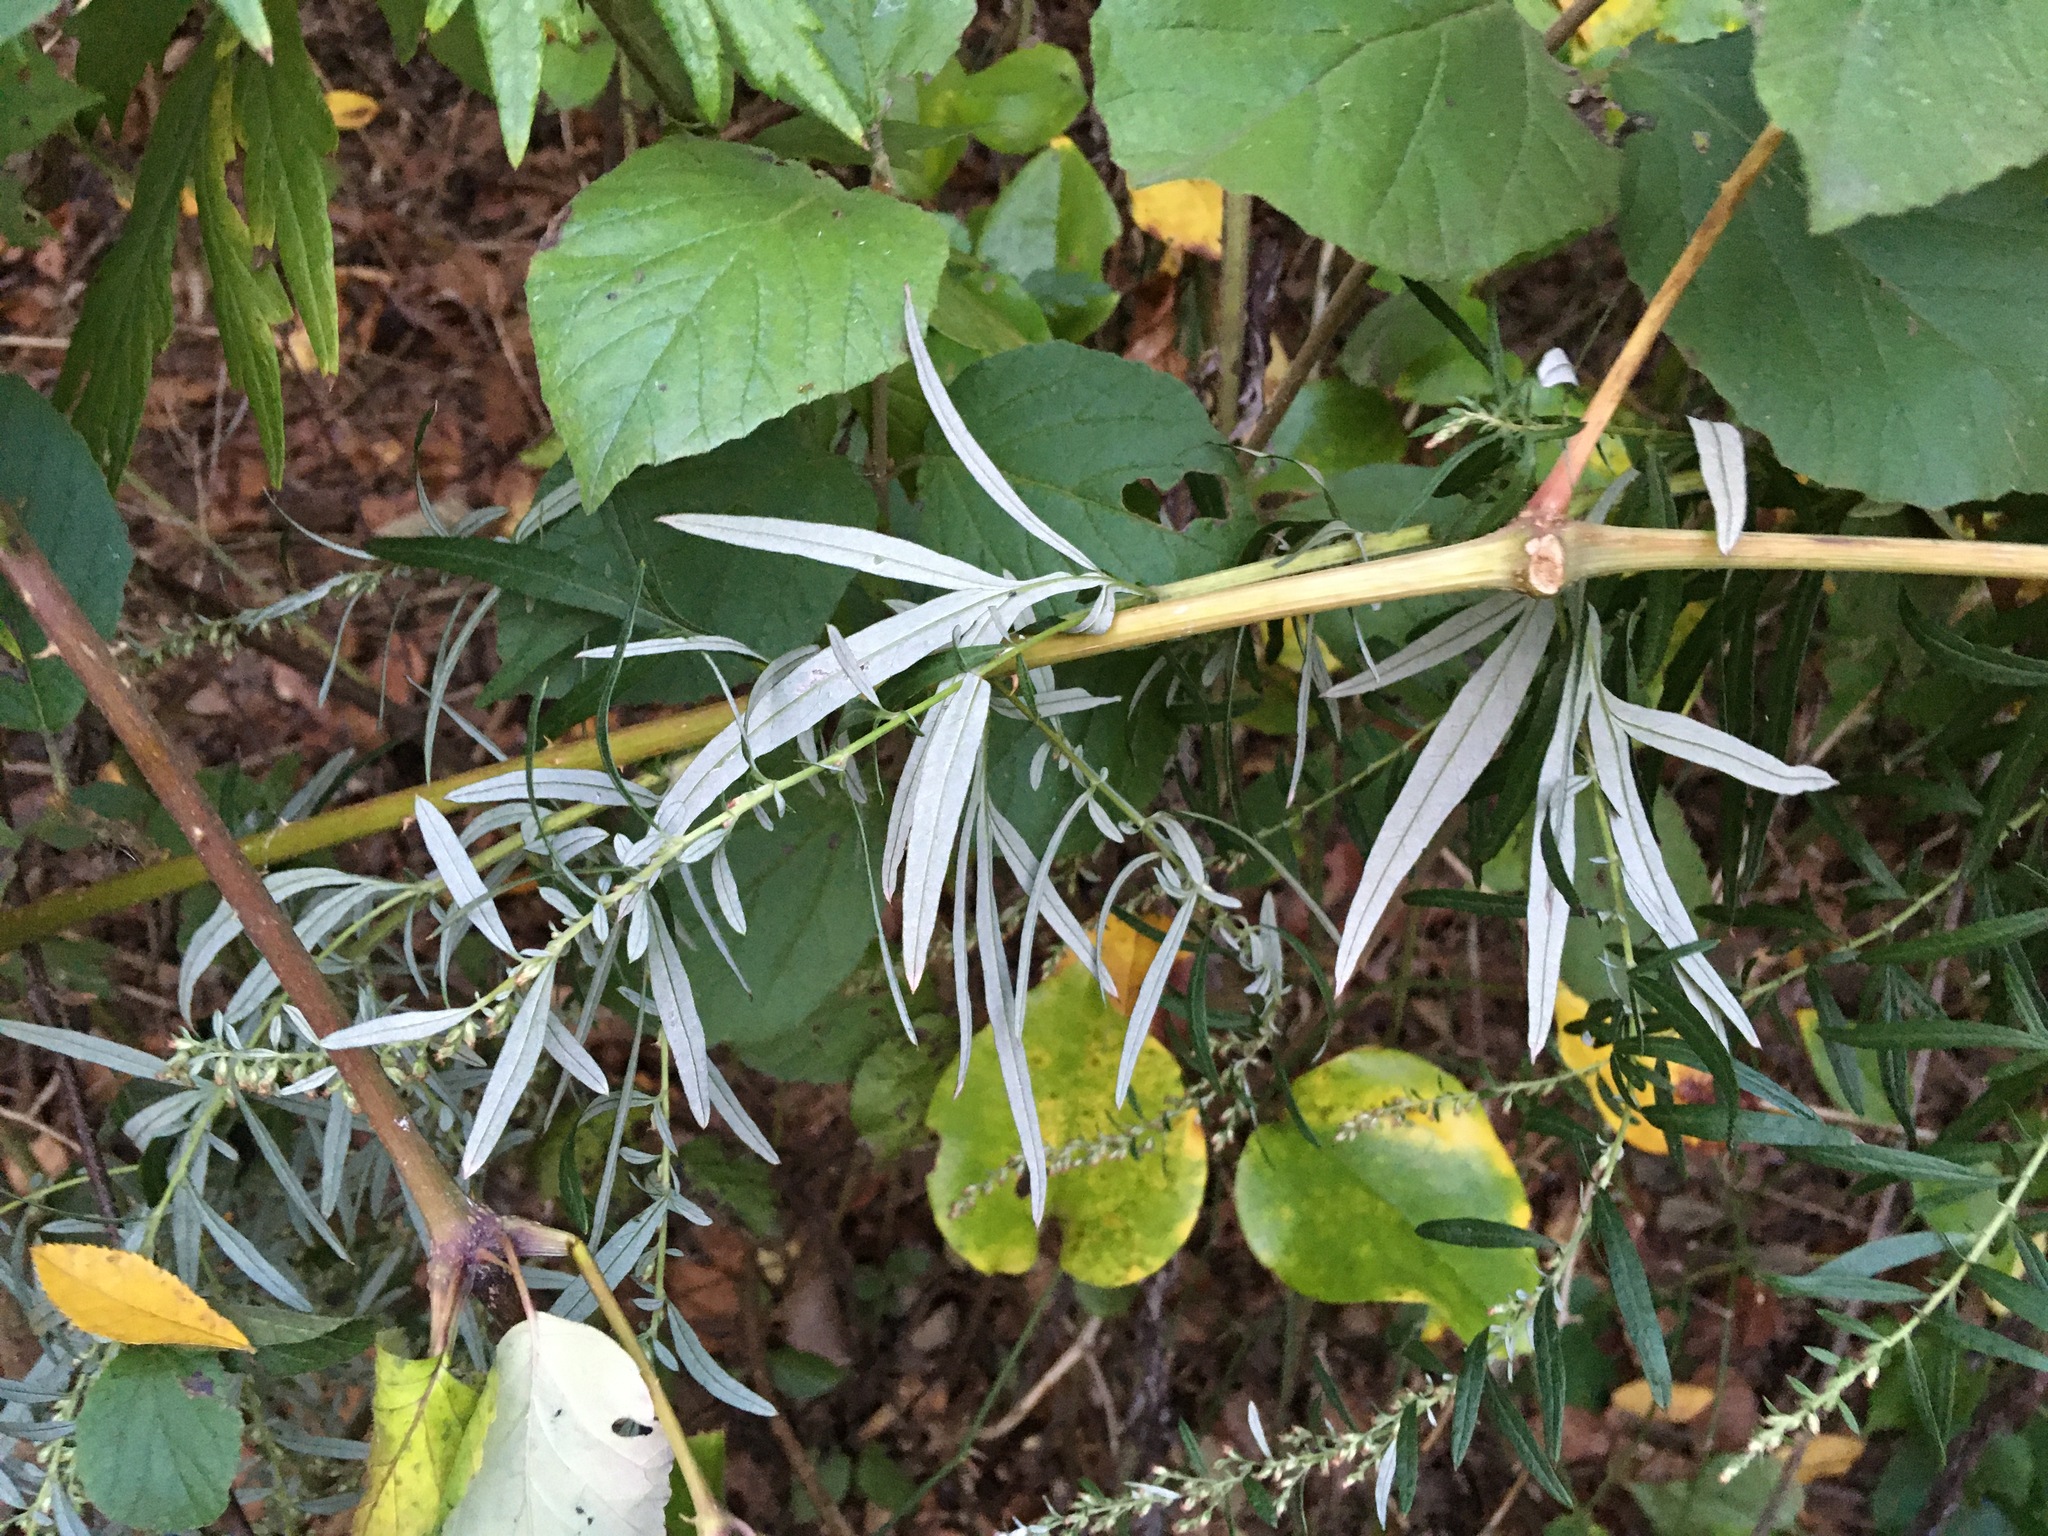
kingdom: Plantae
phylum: Tracheophyta
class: Magnoliopsida
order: Asterales
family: Asteraceae
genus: Artemisia
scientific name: Artemisia vulgaris
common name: Mugwort
